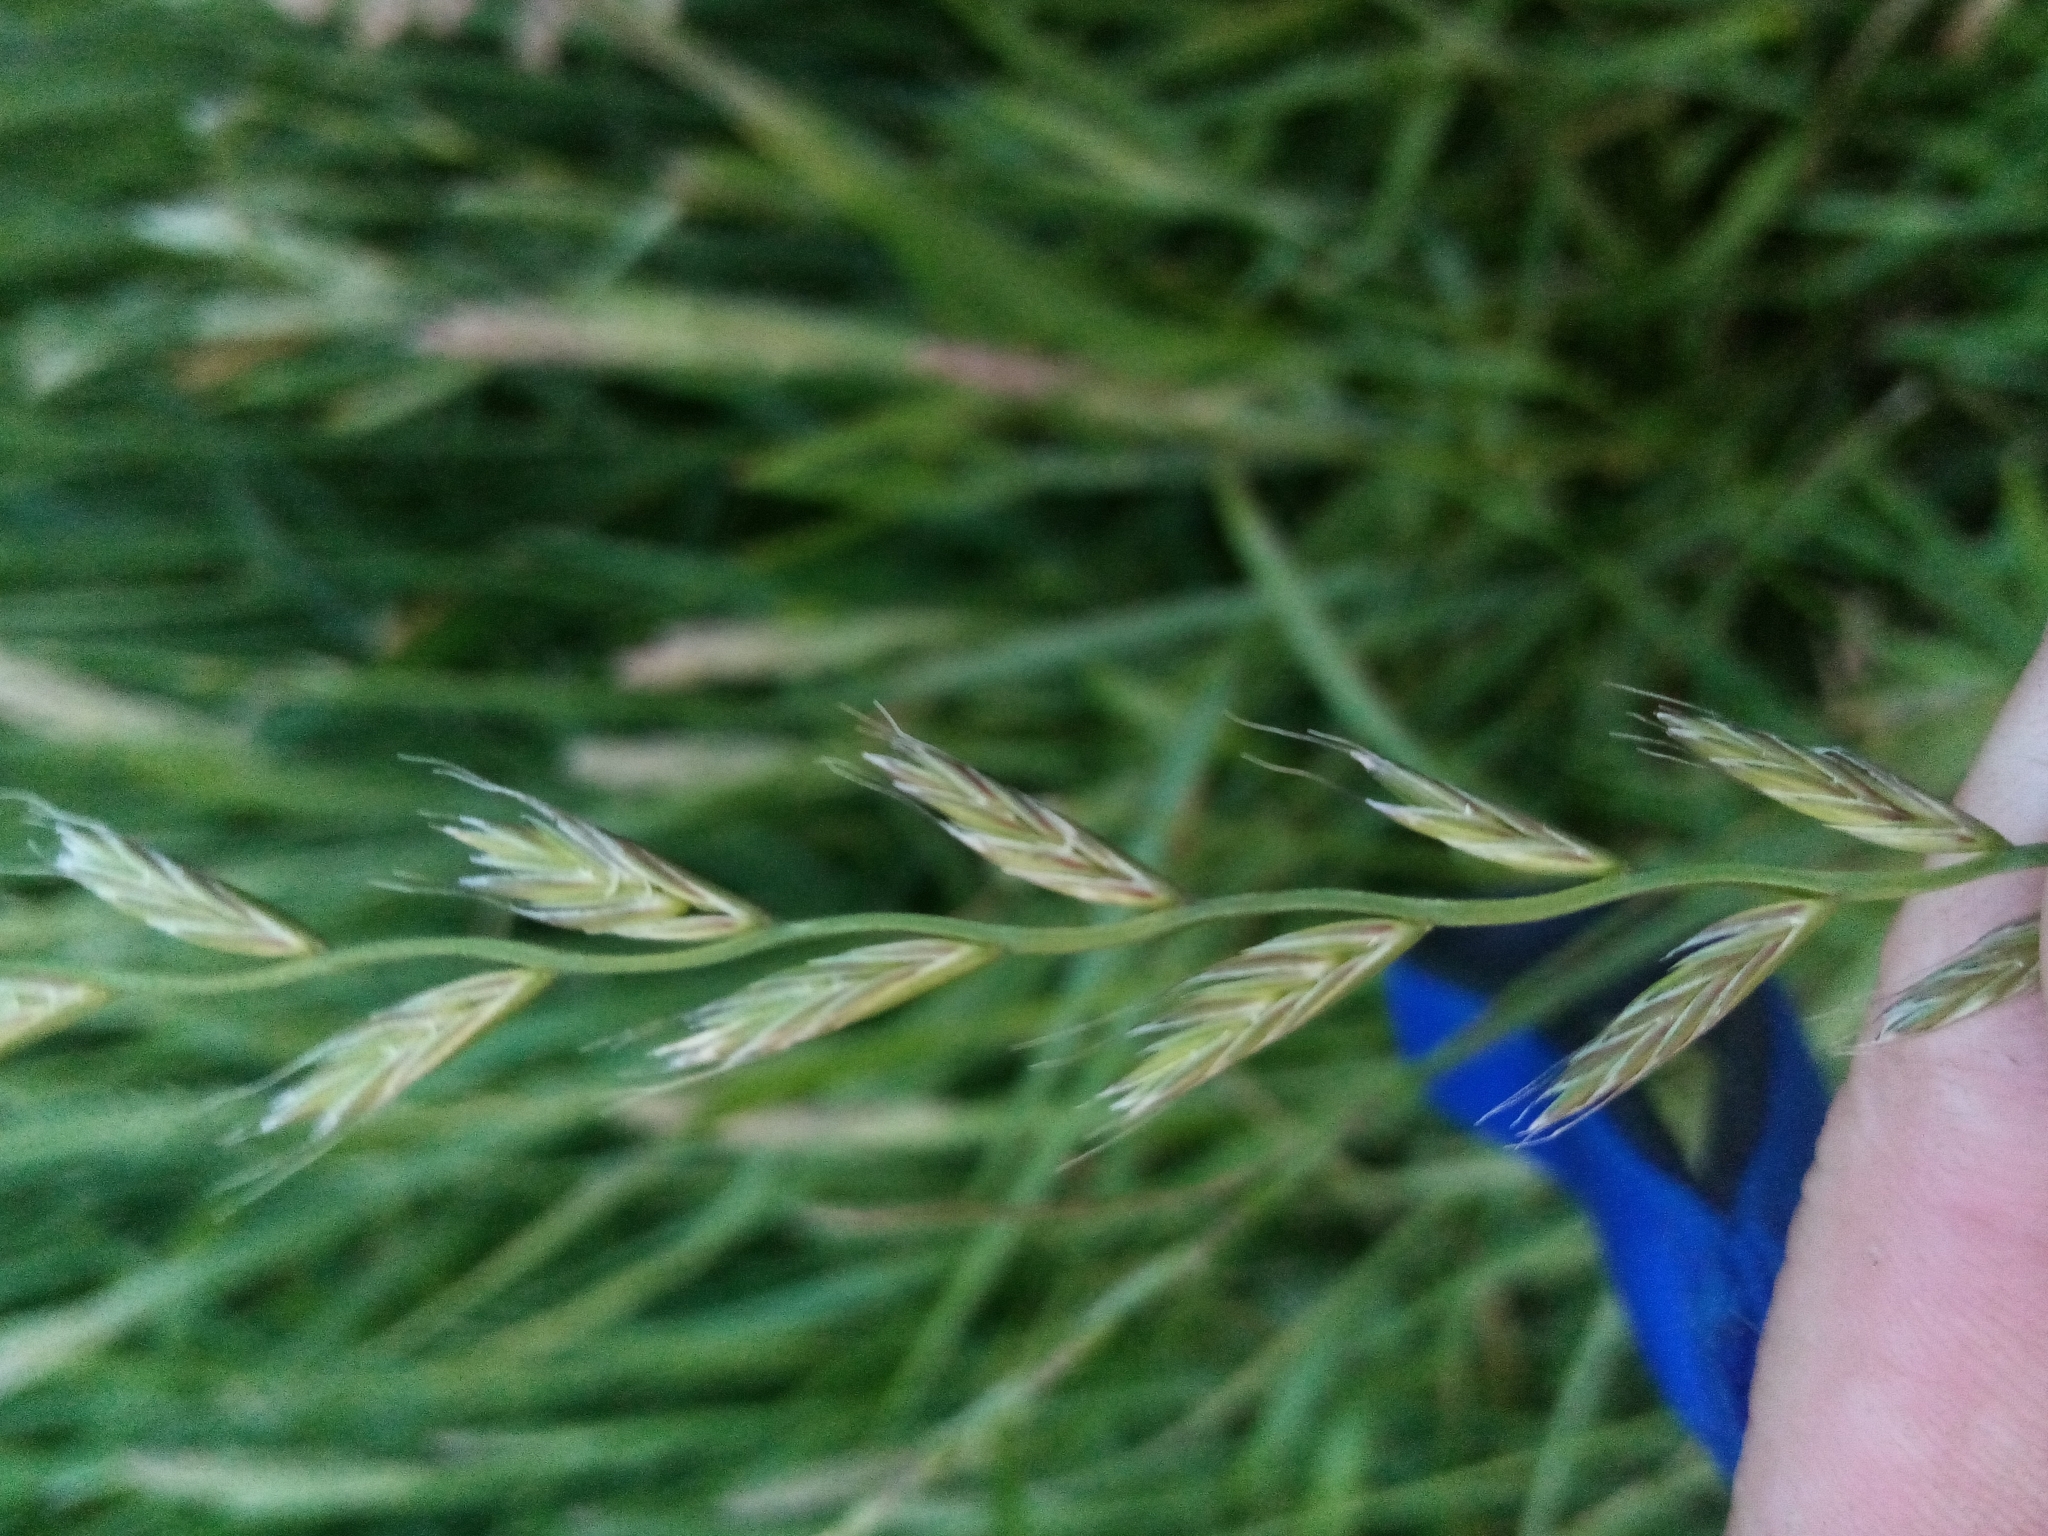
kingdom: Plantae
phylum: Tracheophyta
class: Liliopsida
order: Poales
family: Poaceae
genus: Lolium
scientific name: Lolium multiflorum
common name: Annual ryegrass
